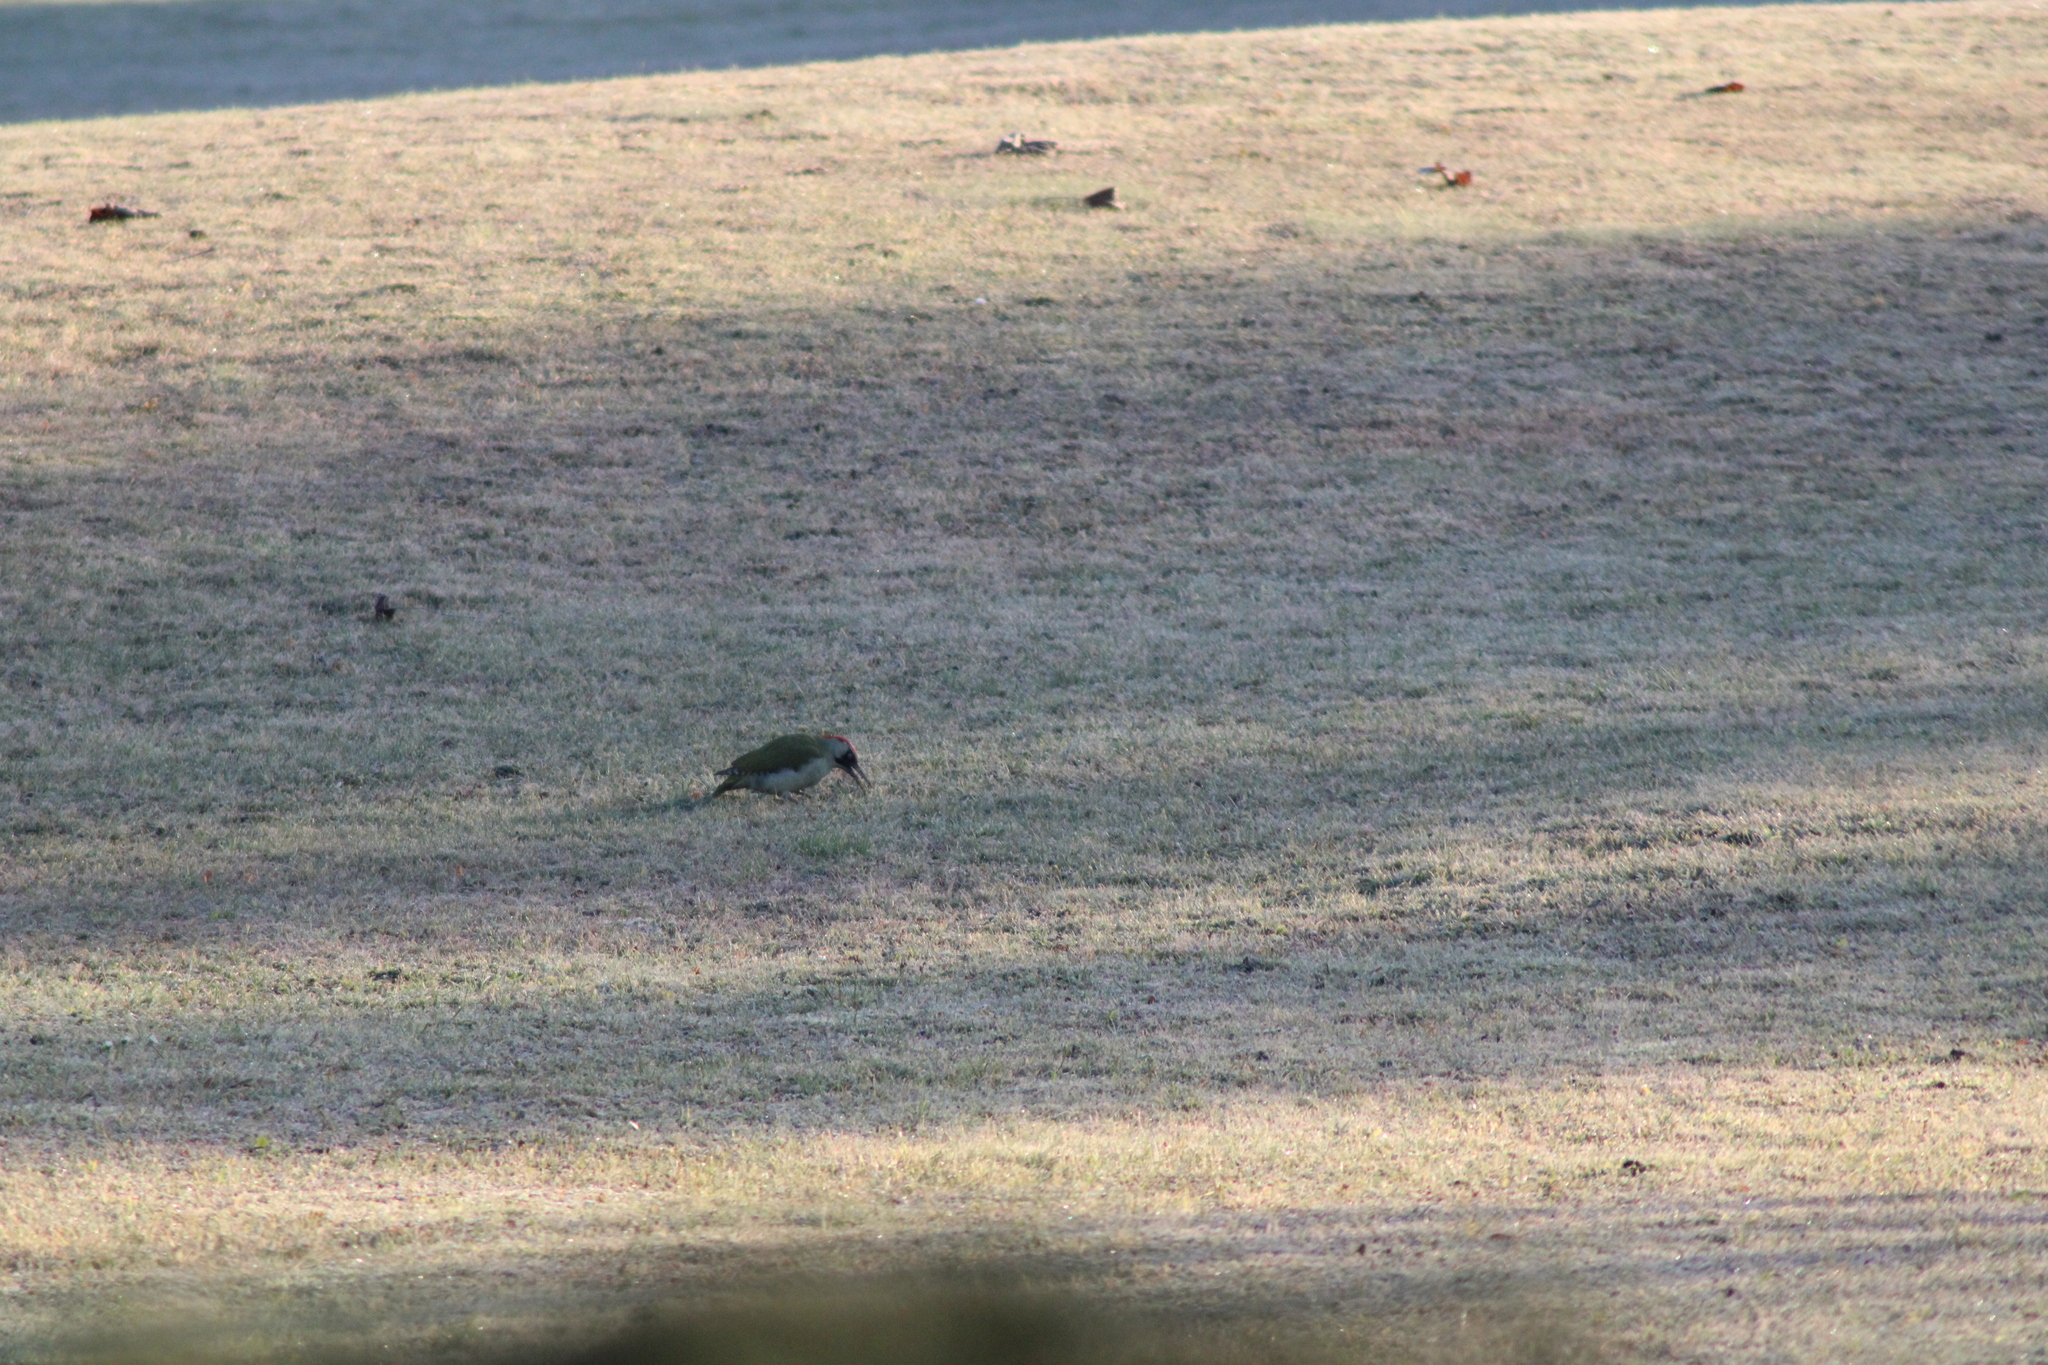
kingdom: Animalia
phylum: Chordata
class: Aves
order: Piciformes
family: Picidae
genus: Picus
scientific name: Picus viridis
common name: European green woodpecker
